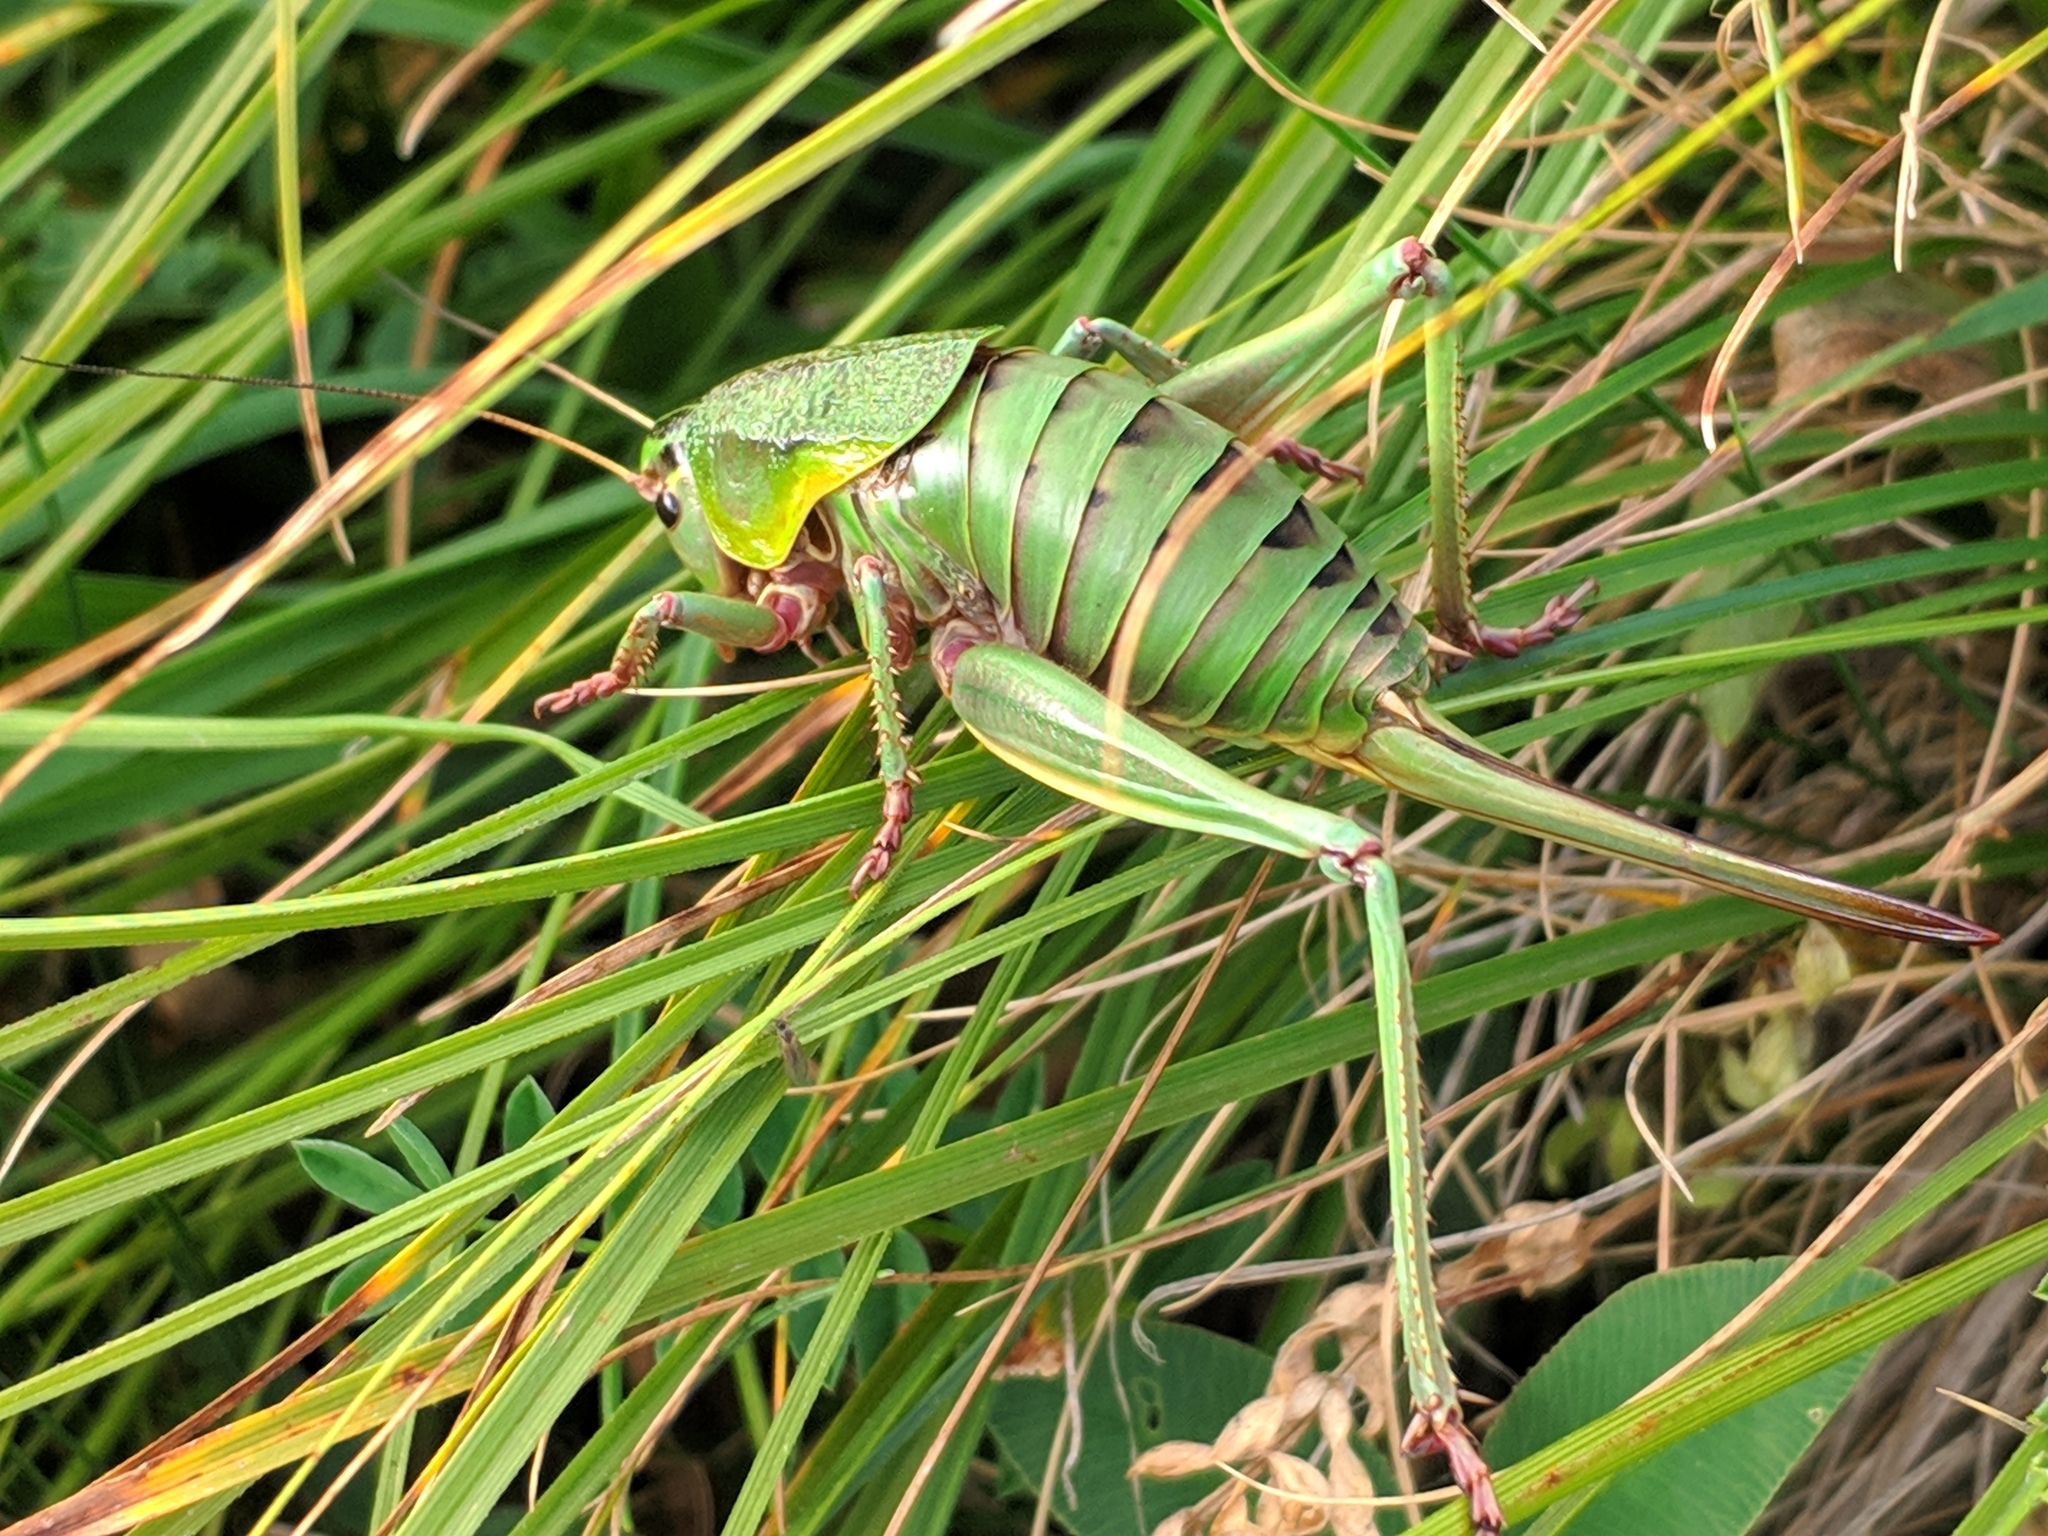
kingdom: Animalia
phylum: Arthropoda
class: Insecta
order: Orthoptera
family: Tettigoniidae
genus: Psorodonotus
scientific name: Psorodonotus venosus
